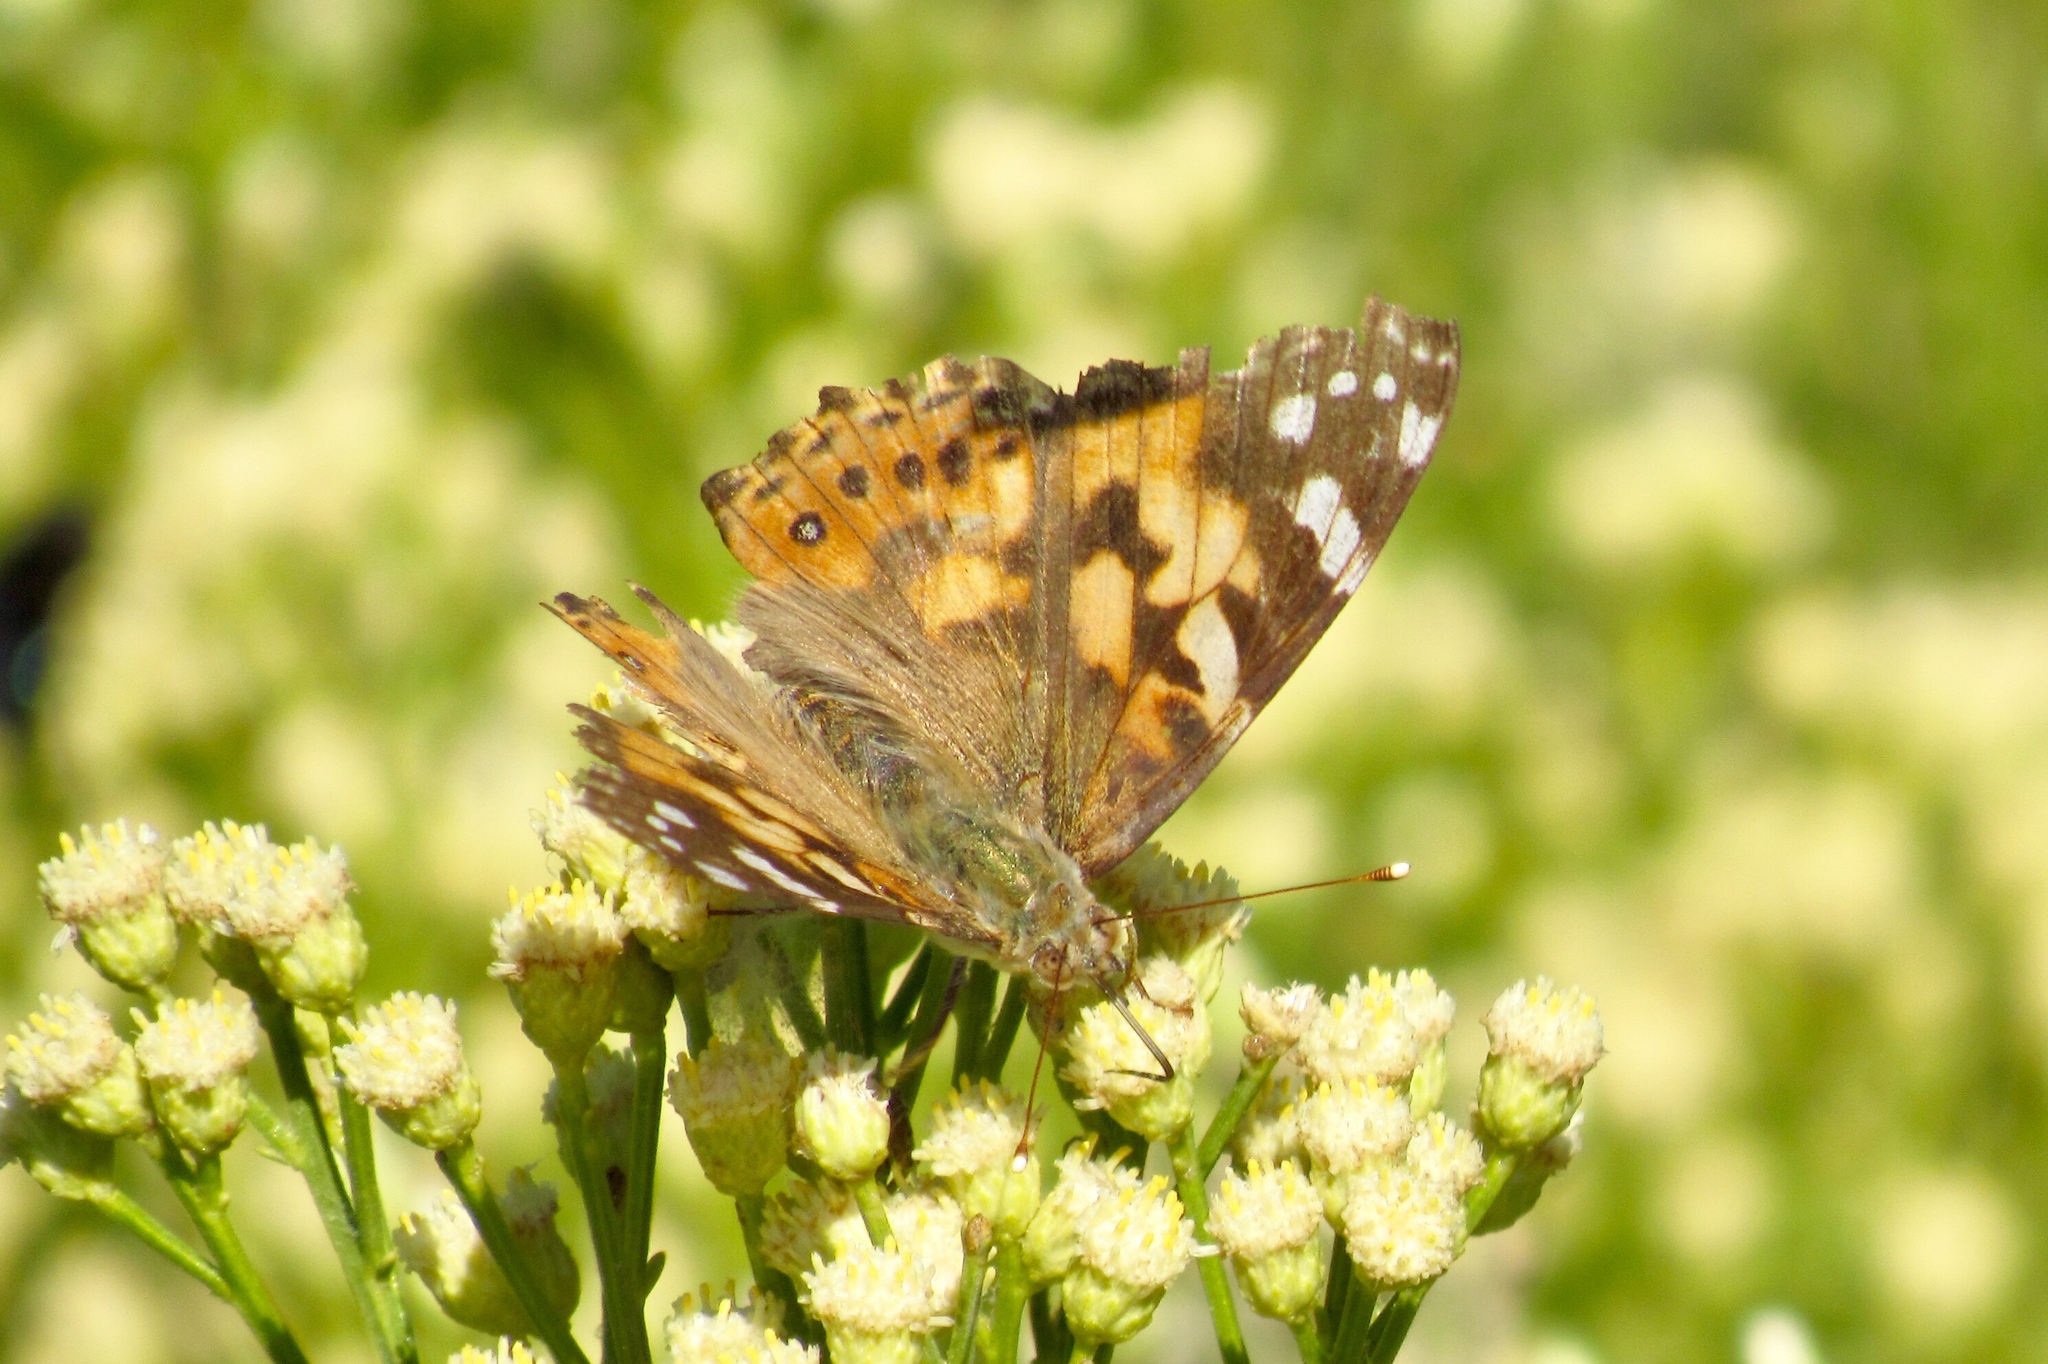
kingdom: Animalia
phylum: Arthropoda
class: Insecta
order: Lepidoptera
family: Nymphalidae
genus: Vanessa
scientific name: Vanessa cardui
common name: Painted lady
